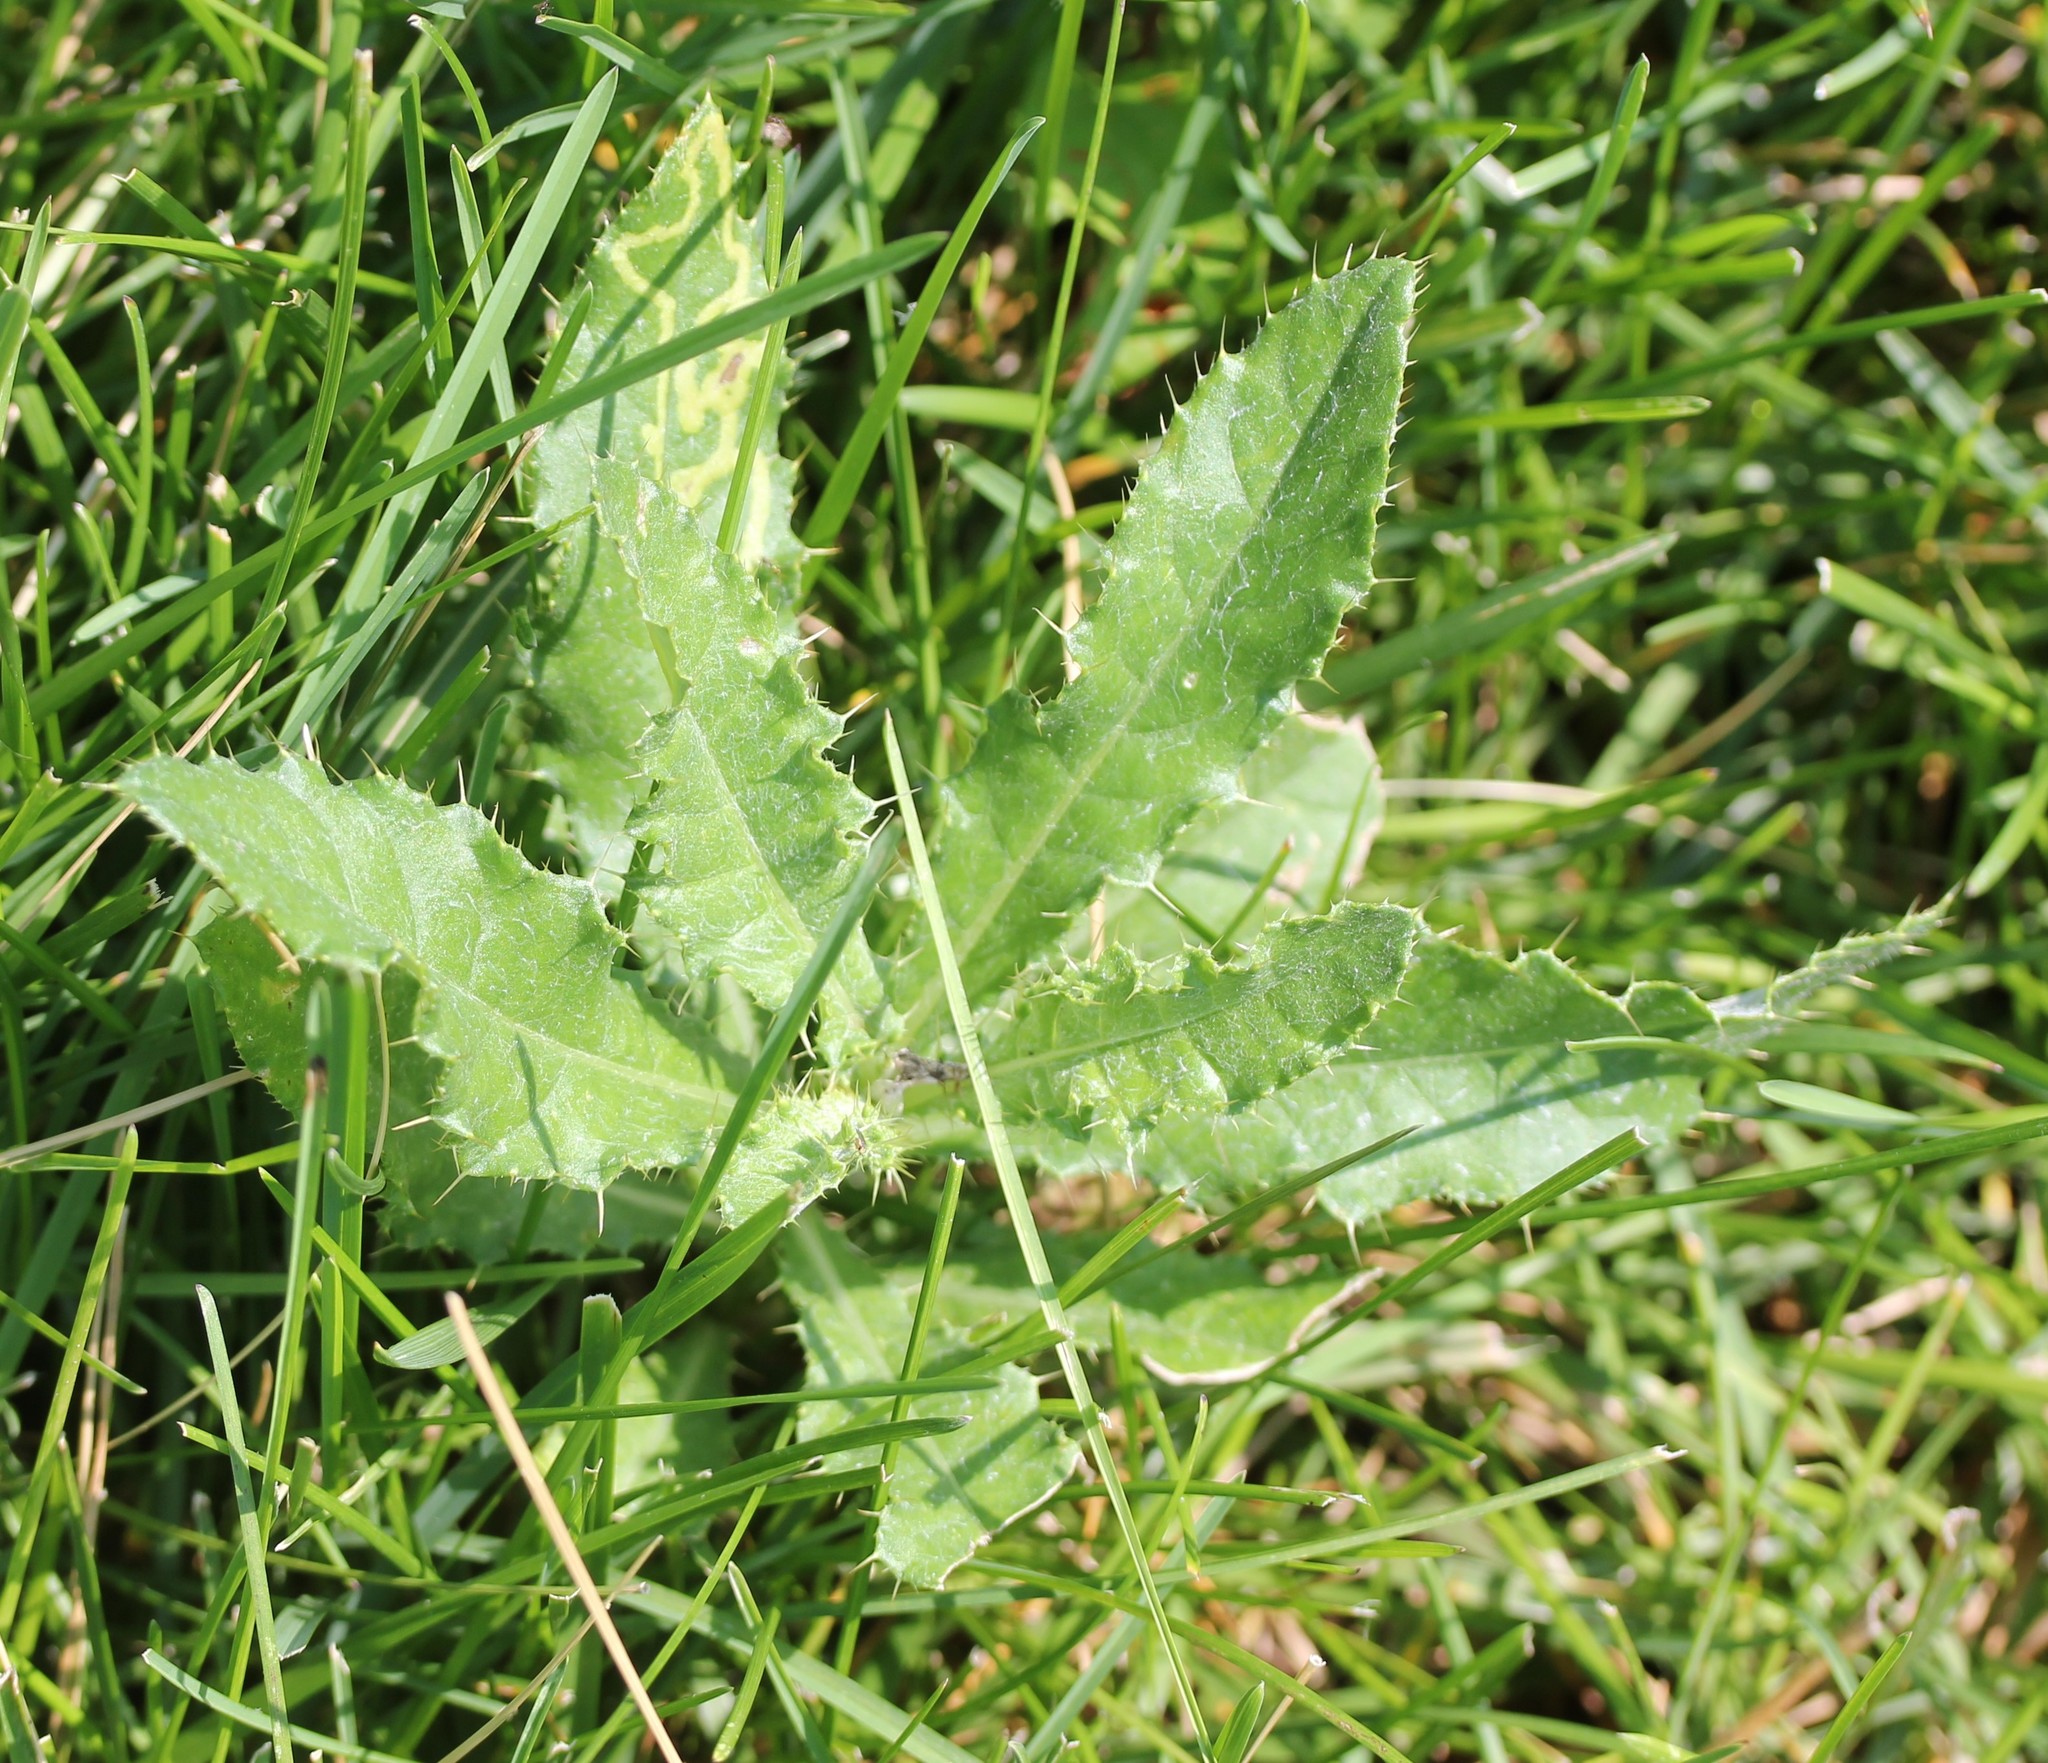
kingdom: Plantae
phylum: Tracheophyta
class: Magnoliopsida
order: Asterales
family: Asteraceae
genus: Cirsium
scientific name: Cirsium arvense
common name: Creeping thistle
